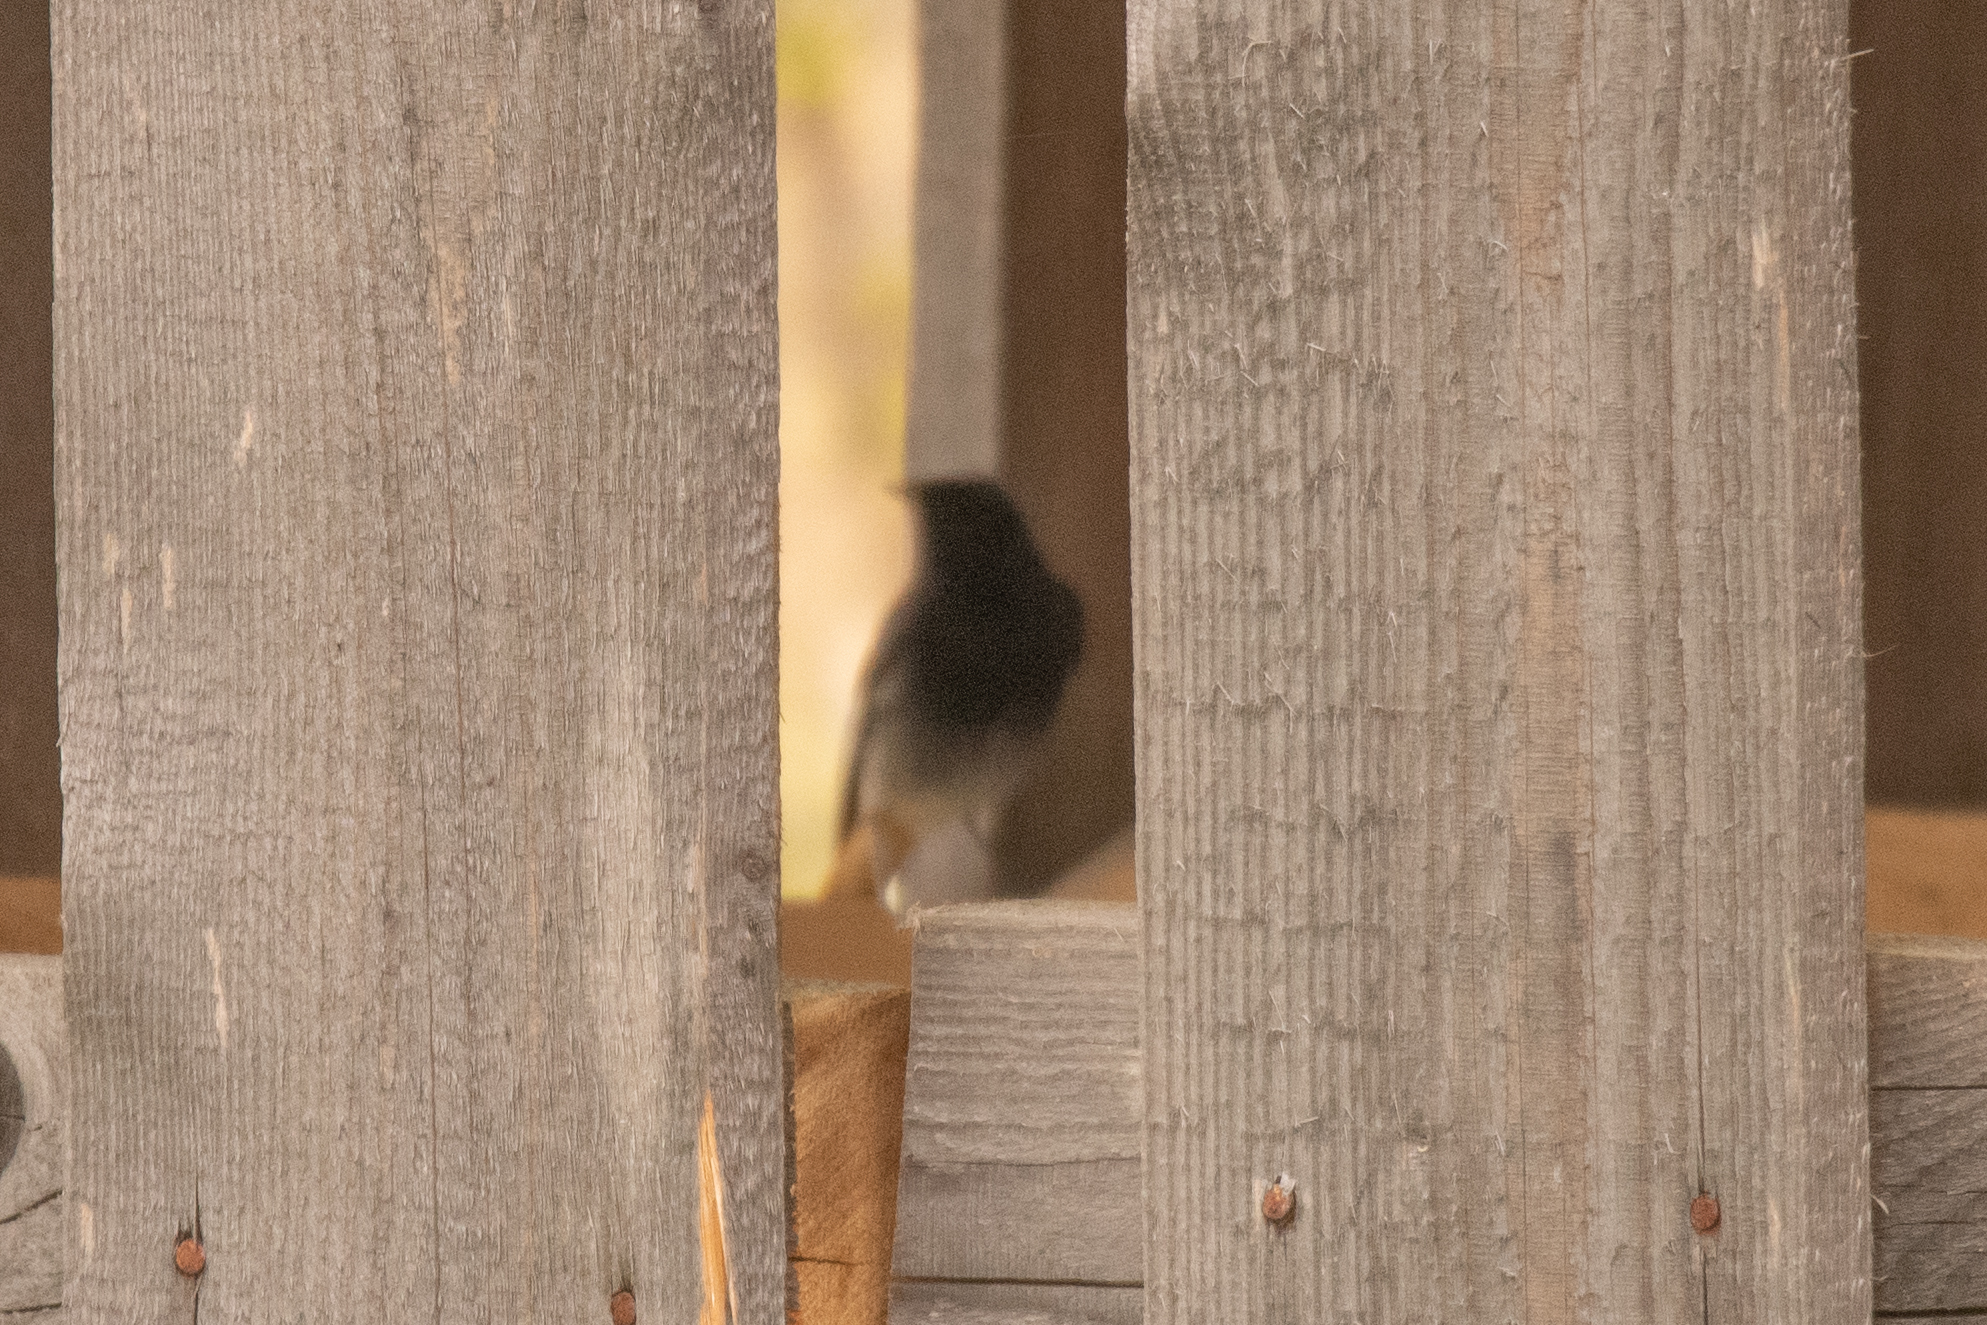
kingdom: Animalia
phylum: Chordata
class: Aves
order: Passeriformes
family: Muscicapidae
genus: Phoenicurus
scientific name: Phoenicurus ochruros
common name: Black redstart
